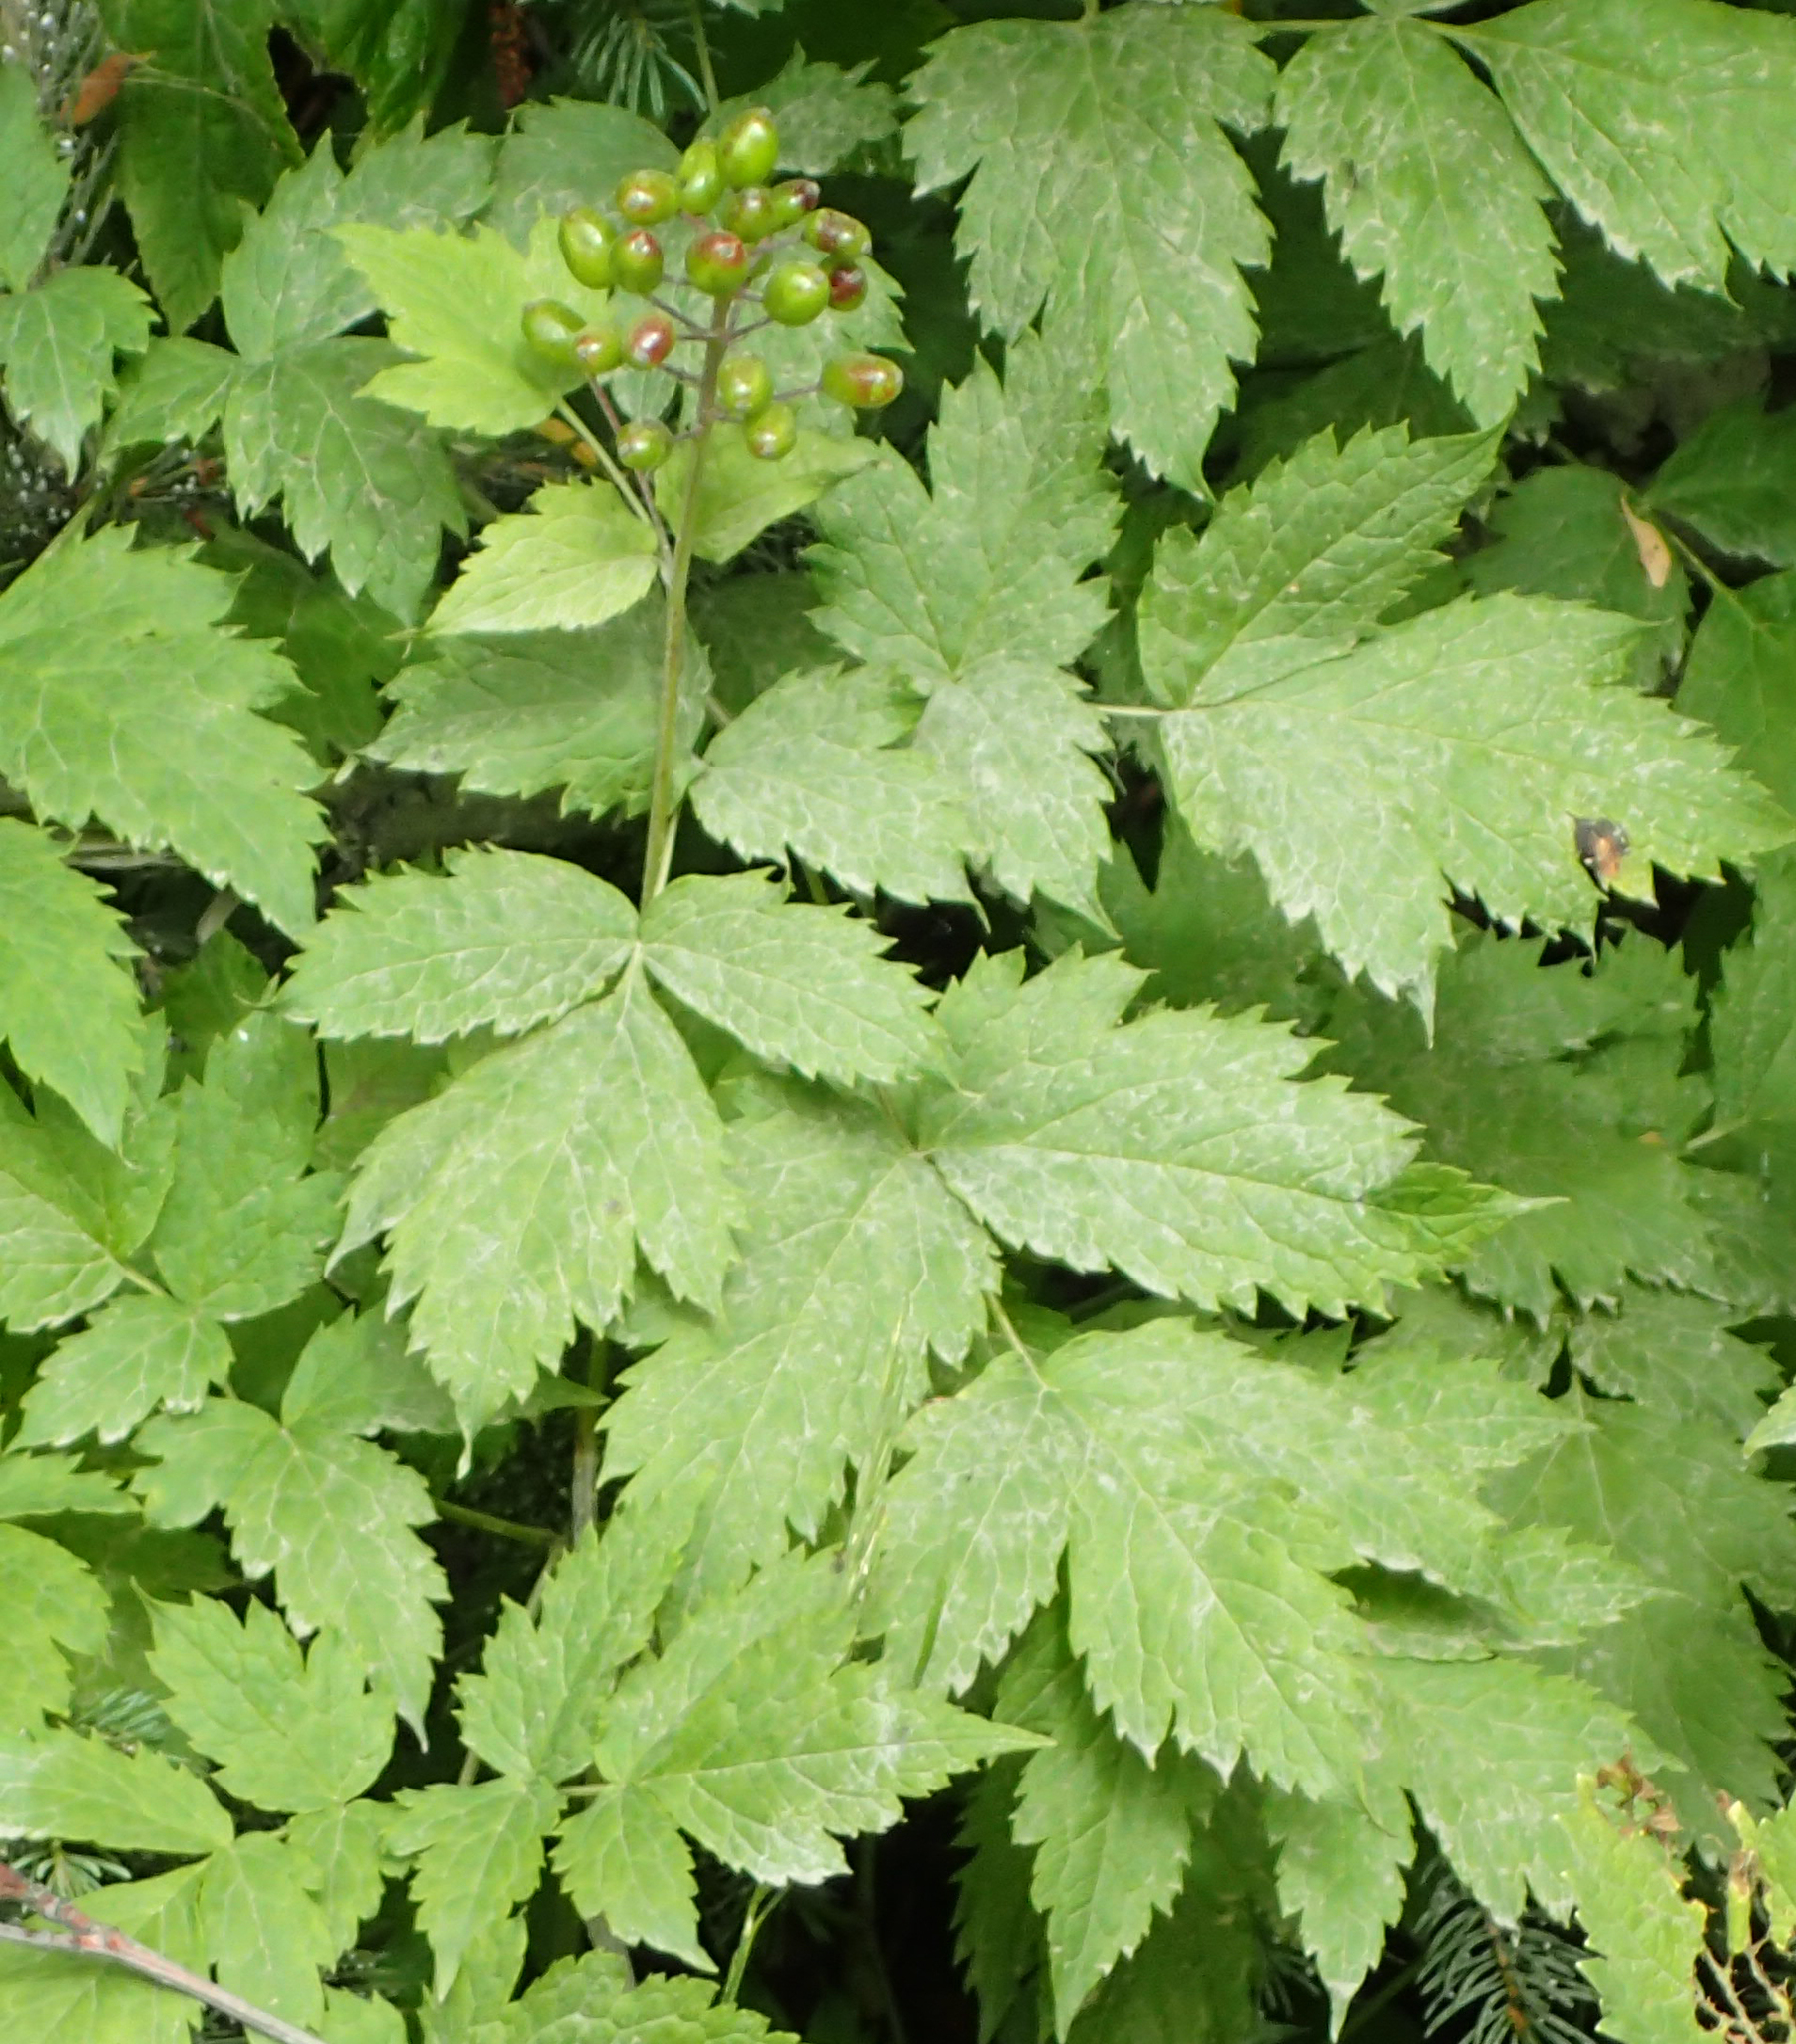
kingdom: Plantae
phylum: Tracheophyta
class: Magnoliopsida
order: Ranunculales
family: Ranunculaceae
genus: Actaea
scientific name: Actaea rubra
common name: Red baneberry
